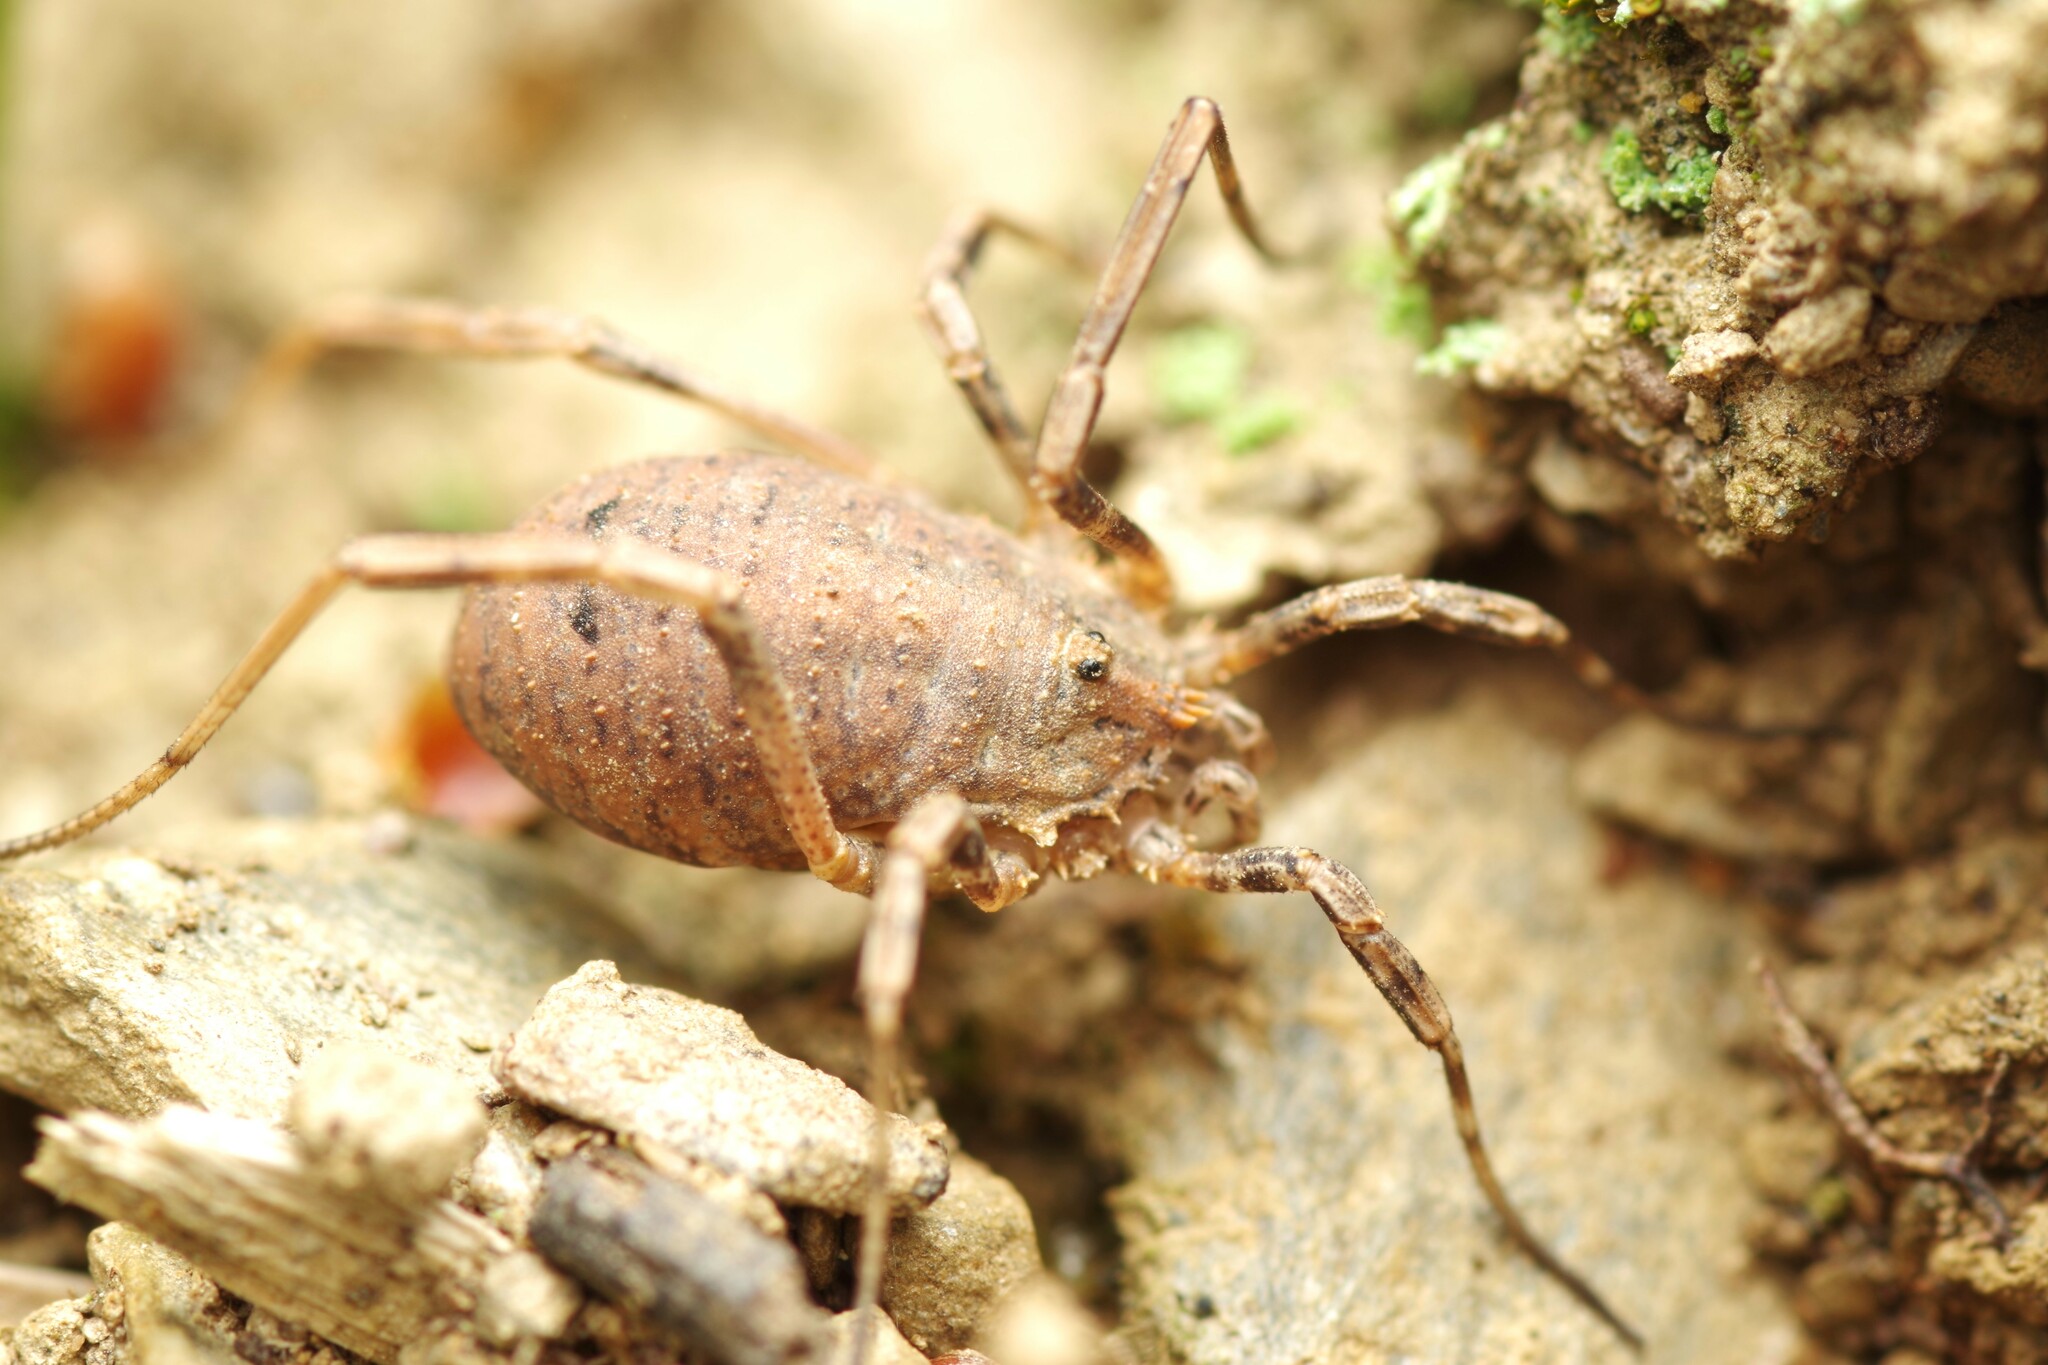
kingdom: Animalia
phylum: Arthropoda
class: Arachnida
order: Opiliones
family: Phalangiidae
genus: Odiellus
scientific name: Odiellus spinosus
